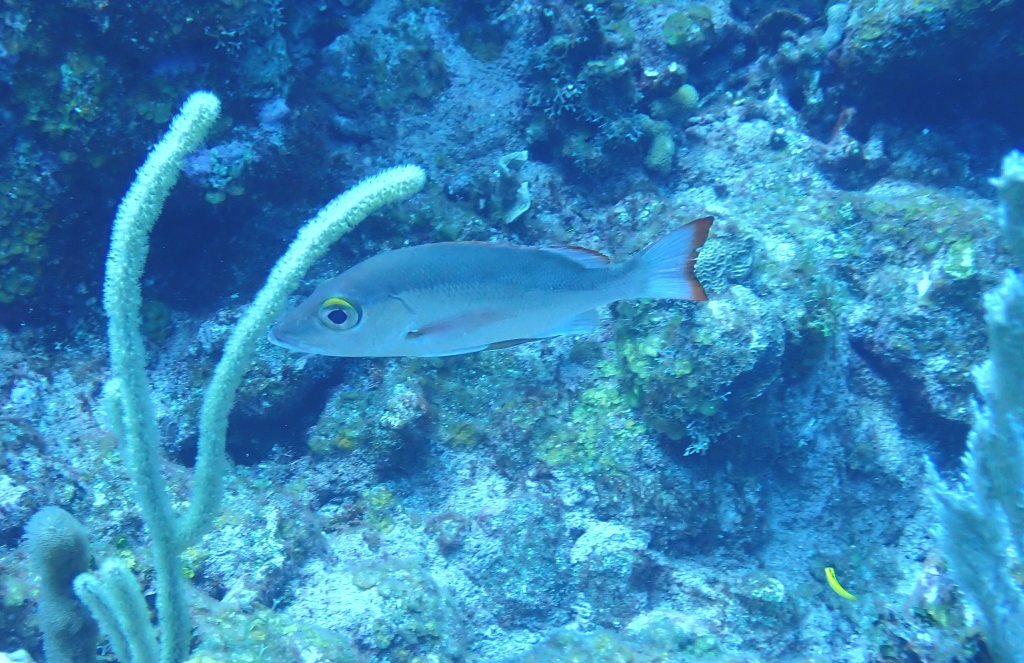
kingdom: Animalia
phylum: Chordata
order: Perciformes
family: Lutjanidae
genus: Lutjanus
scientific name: Lutjanus mahogoni
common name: Spot snapper
